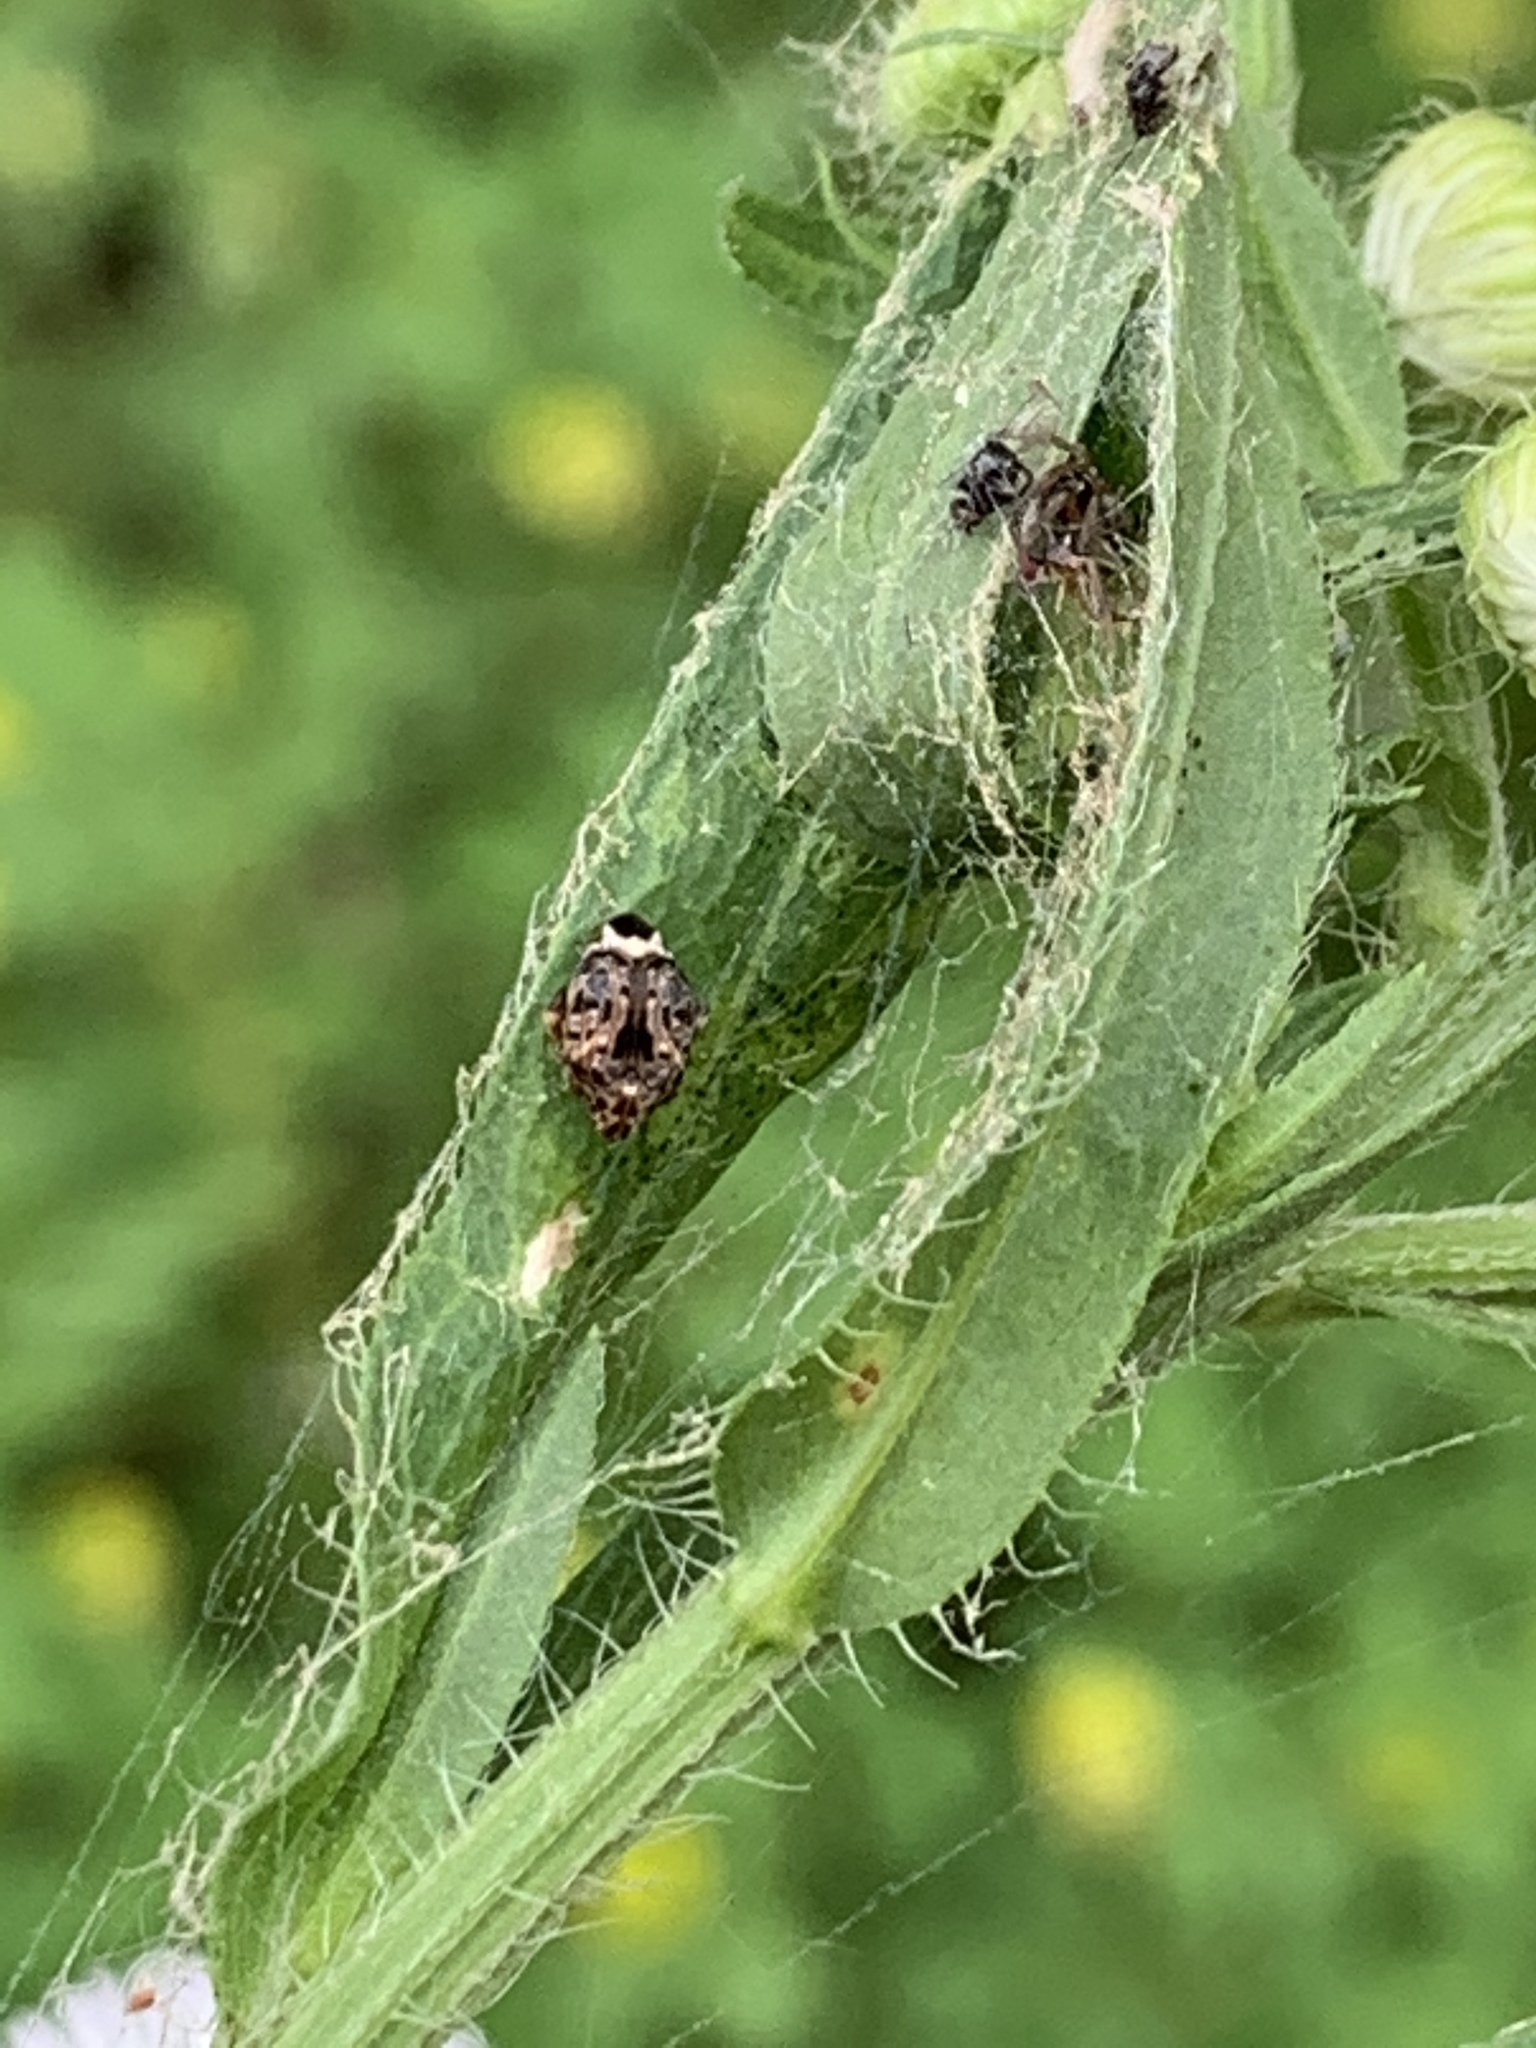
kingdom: Animalia
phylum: Arthropoda
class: Insecta
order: Coleoptera
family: Chrysomelidae
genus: Gibbobruchus
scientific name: Gibbobruchus mimus
